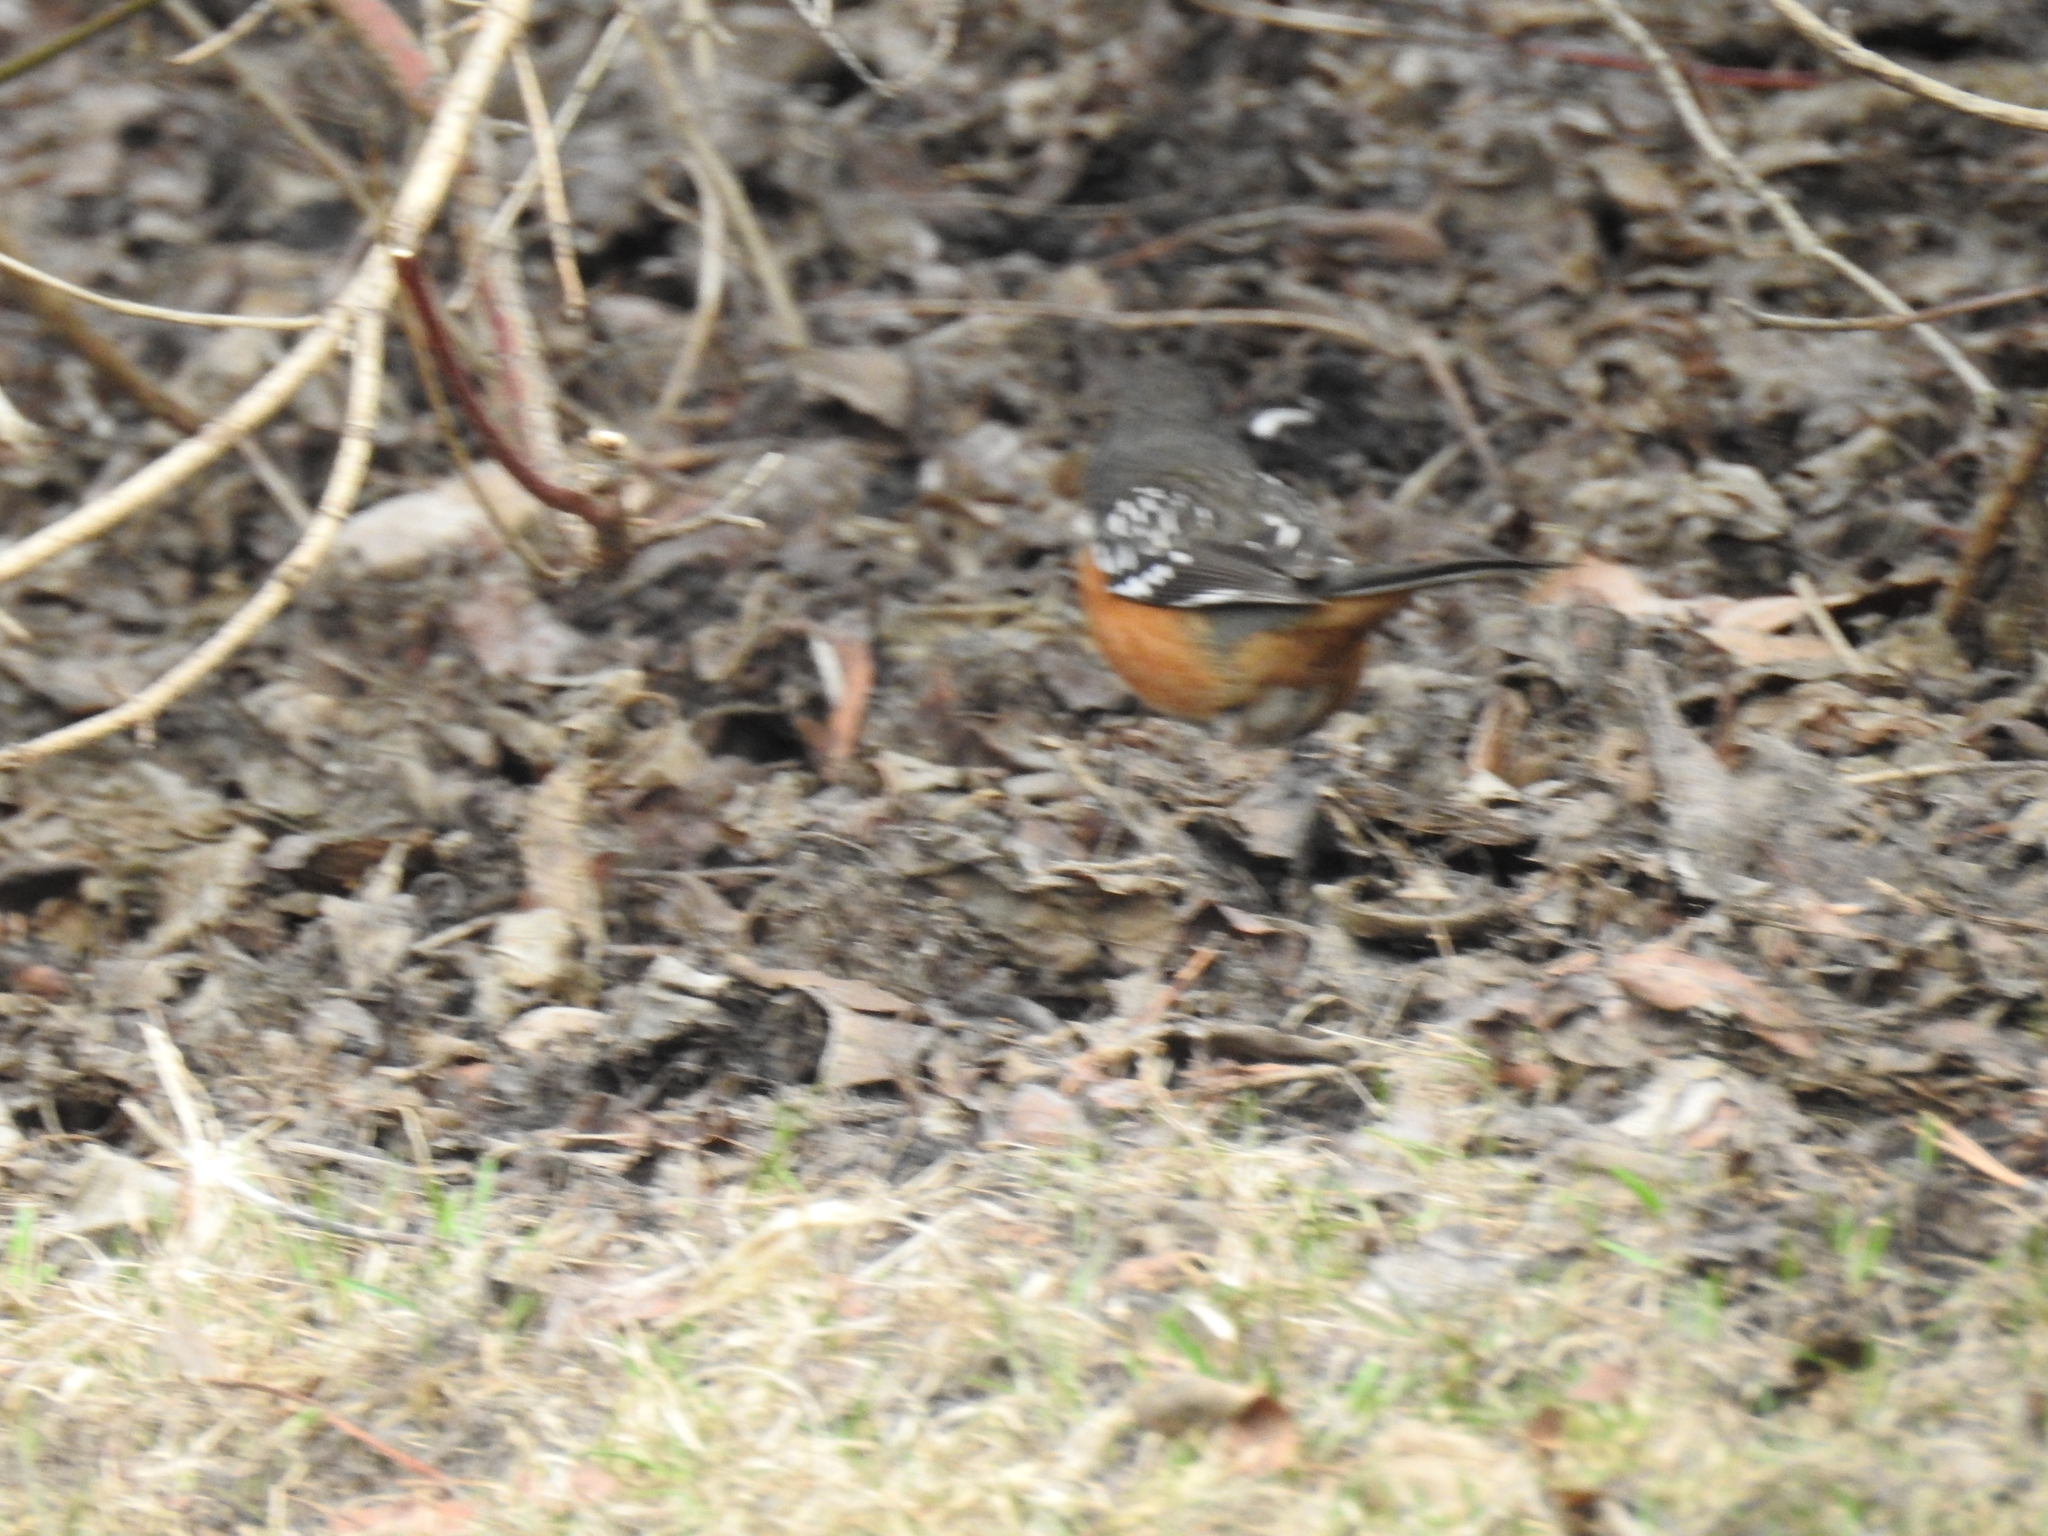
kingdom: Animalia
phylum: Chordata
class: Aves
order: Passeriformes
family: Passerellidae
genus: Pipilo
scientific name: Pipilo maculatus
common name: Spotted towhee
